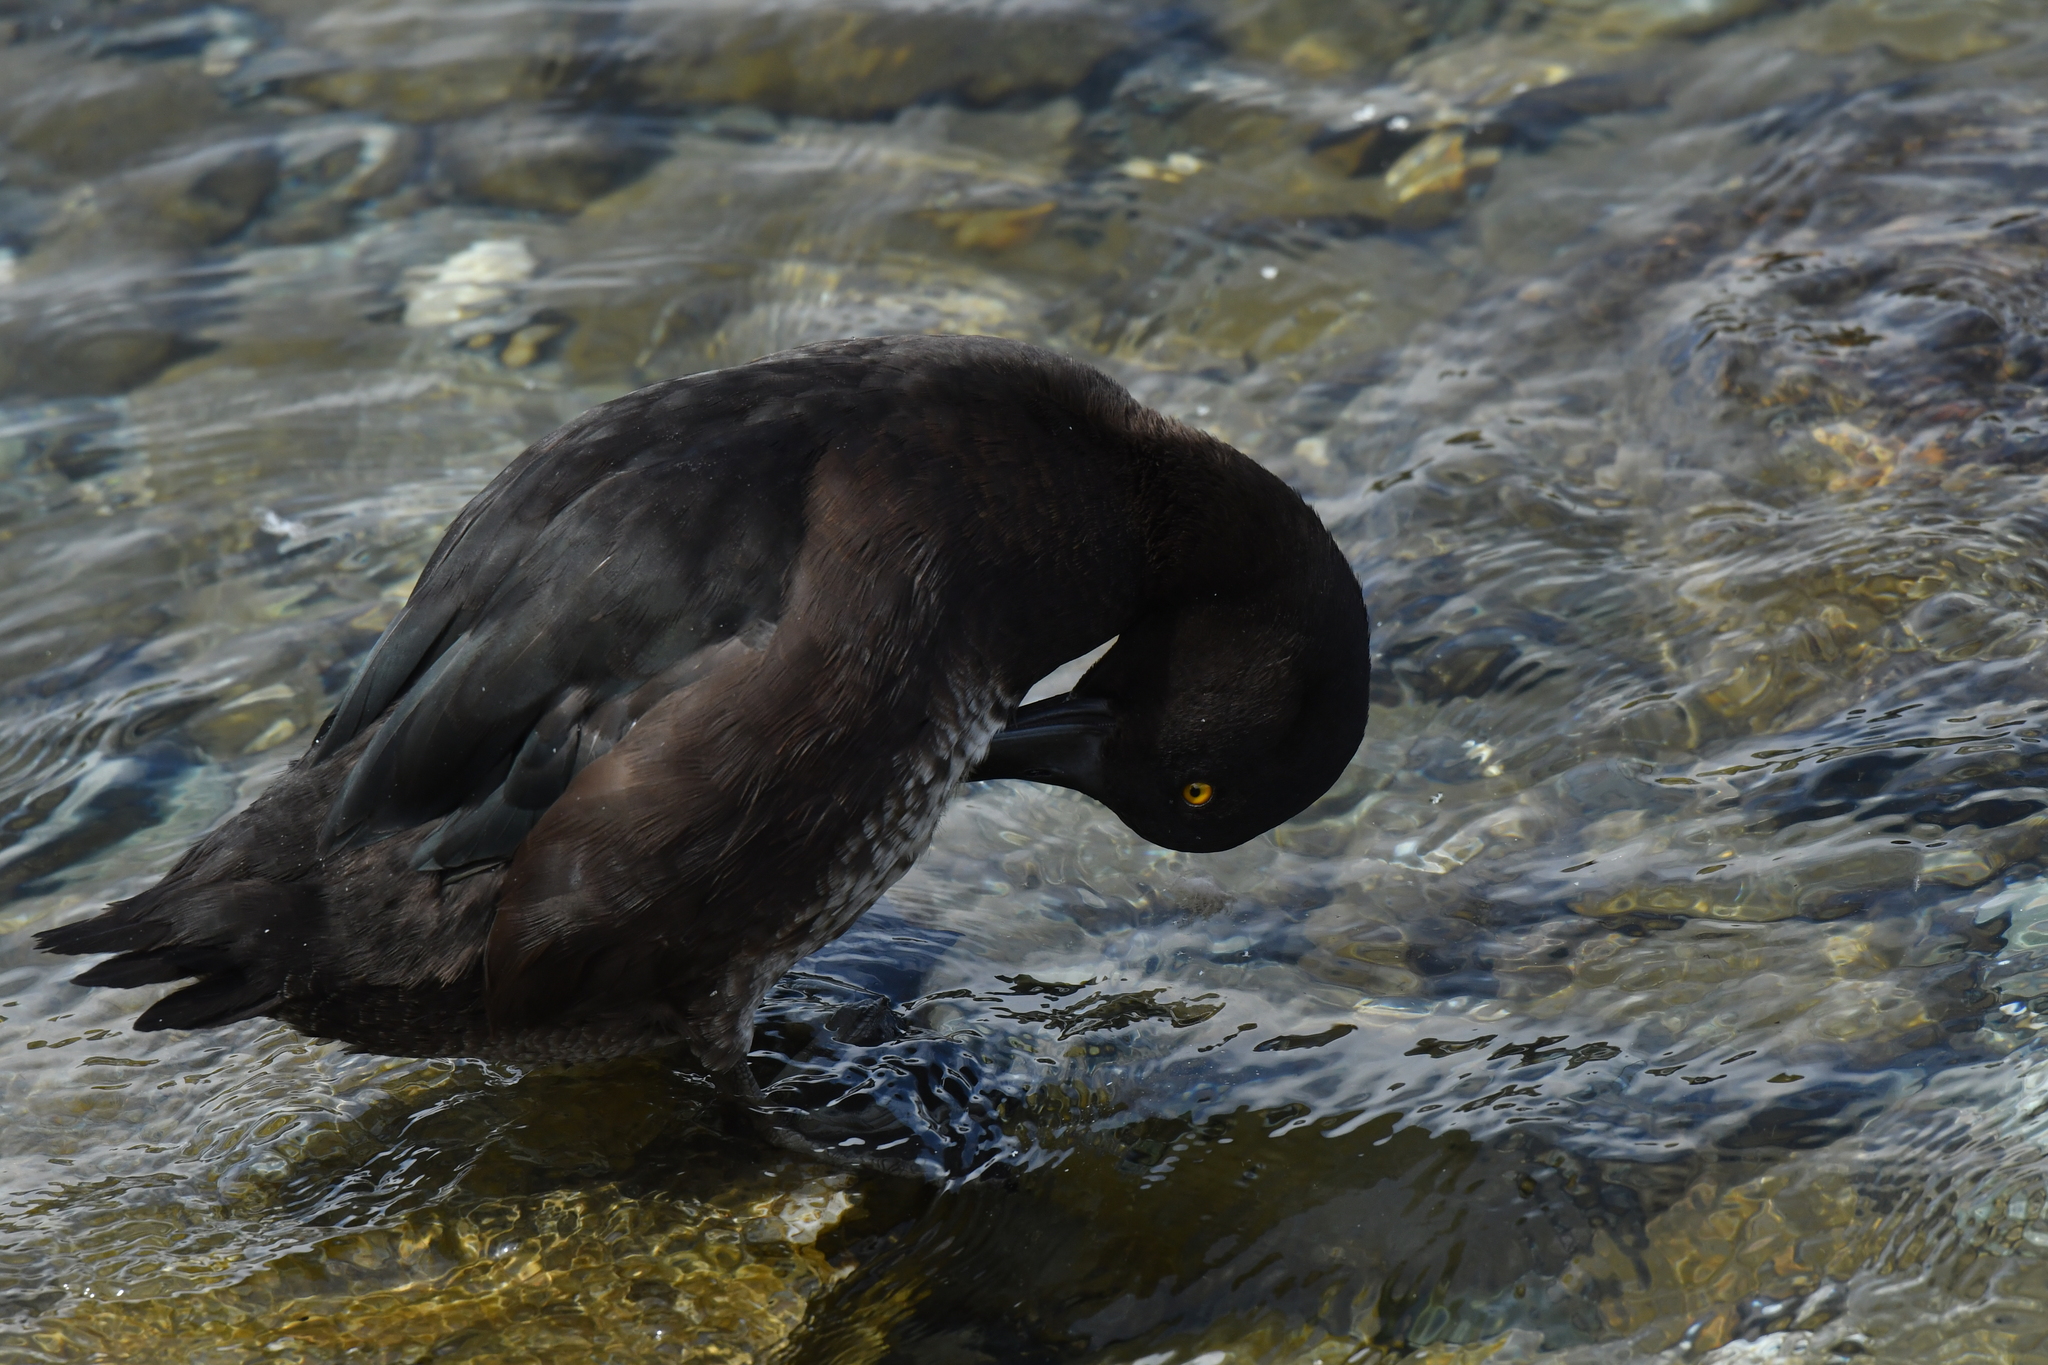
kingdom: Animalia
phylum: Chordata
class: Aves
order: Anseriformes
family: Anatidae
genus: Aythya
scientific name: Aythya novaeseelandiae
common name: New zealand scaup
